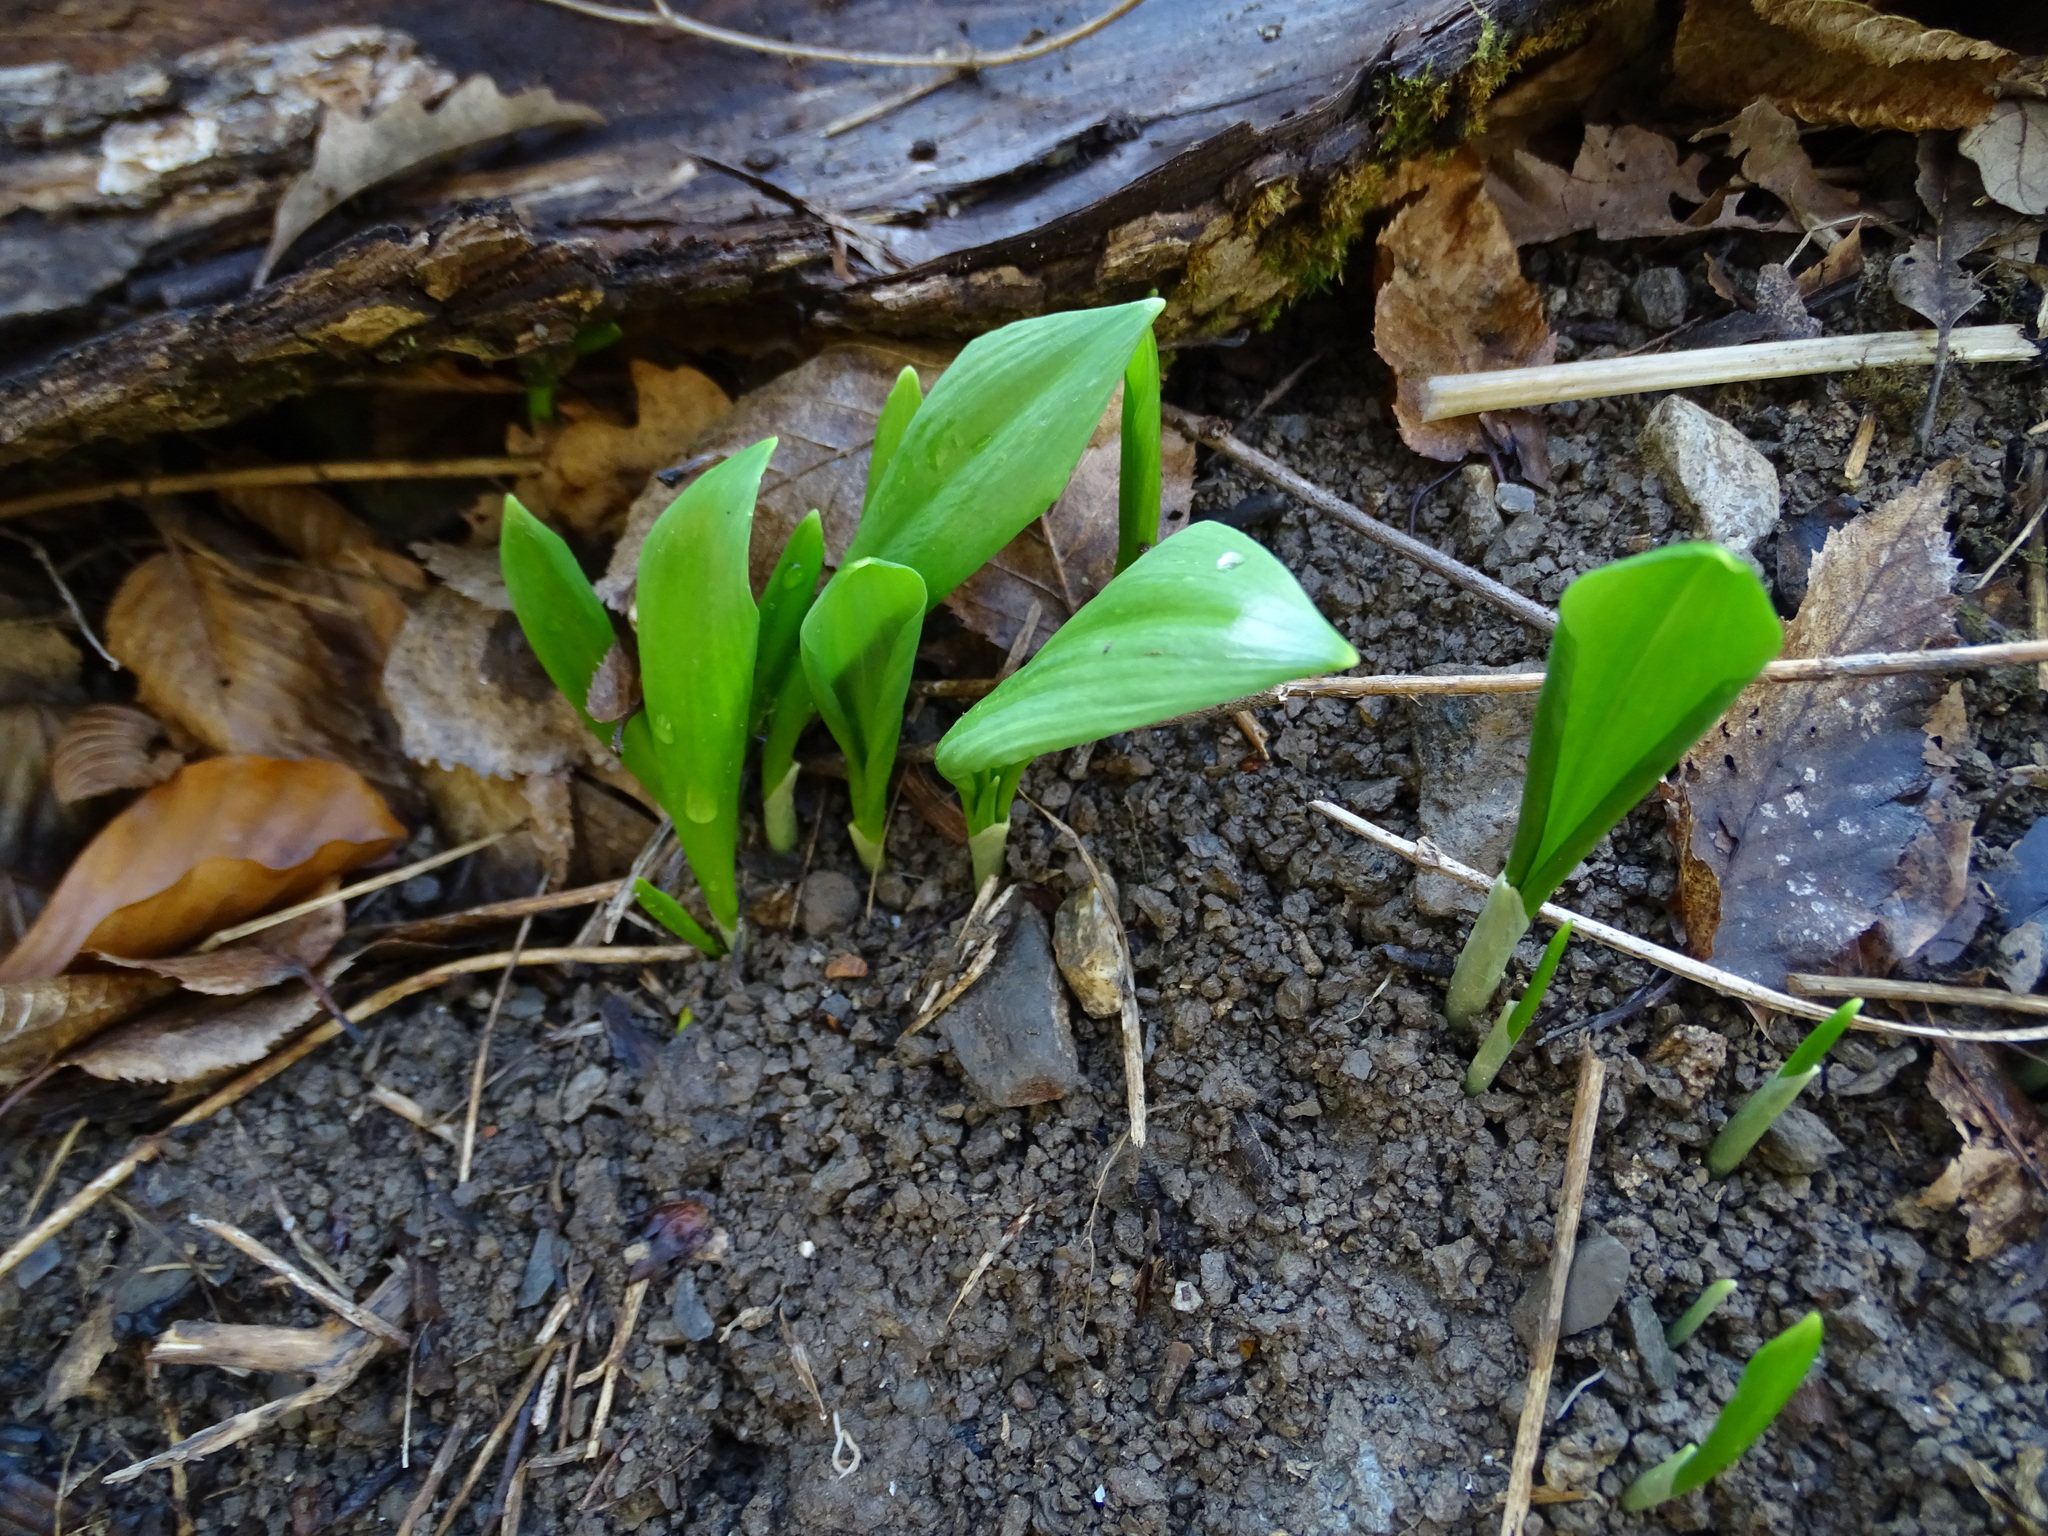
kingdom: Plantae
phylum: Tracheophyta
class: Liliopsida
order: Asparagales
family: Amaryllidaceae
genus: Allium
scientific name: Allium ursinum
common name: Ramsons
